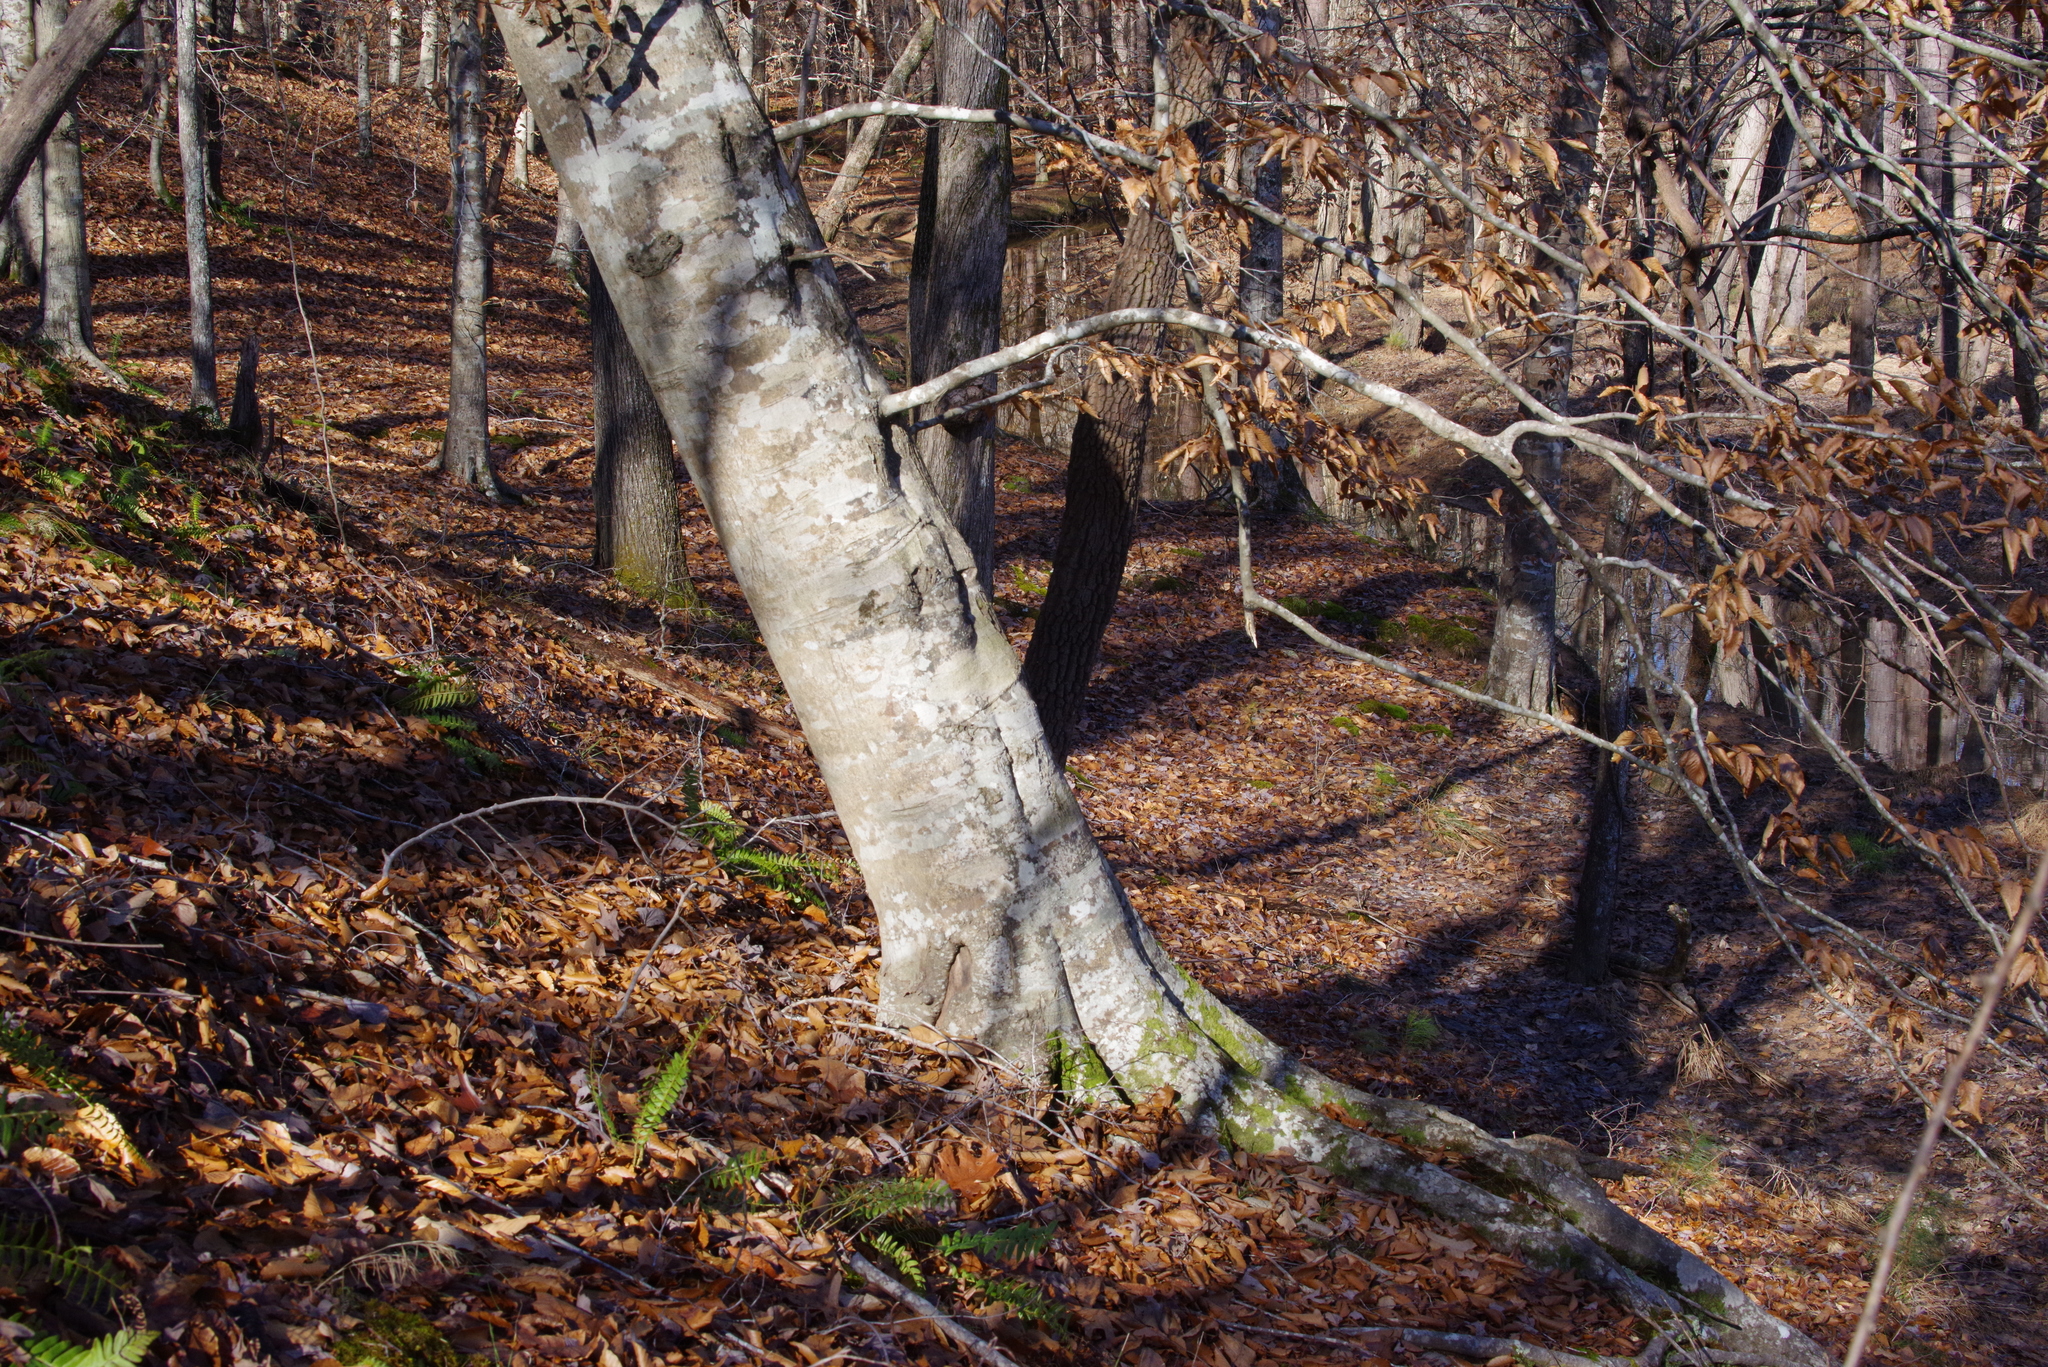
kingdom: Plantae
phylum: Tracheophyta
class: Magnoliopsida
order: Fagales
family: Fagaceae
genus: Fagus
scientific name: Fagus grandifolia
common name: American beech
